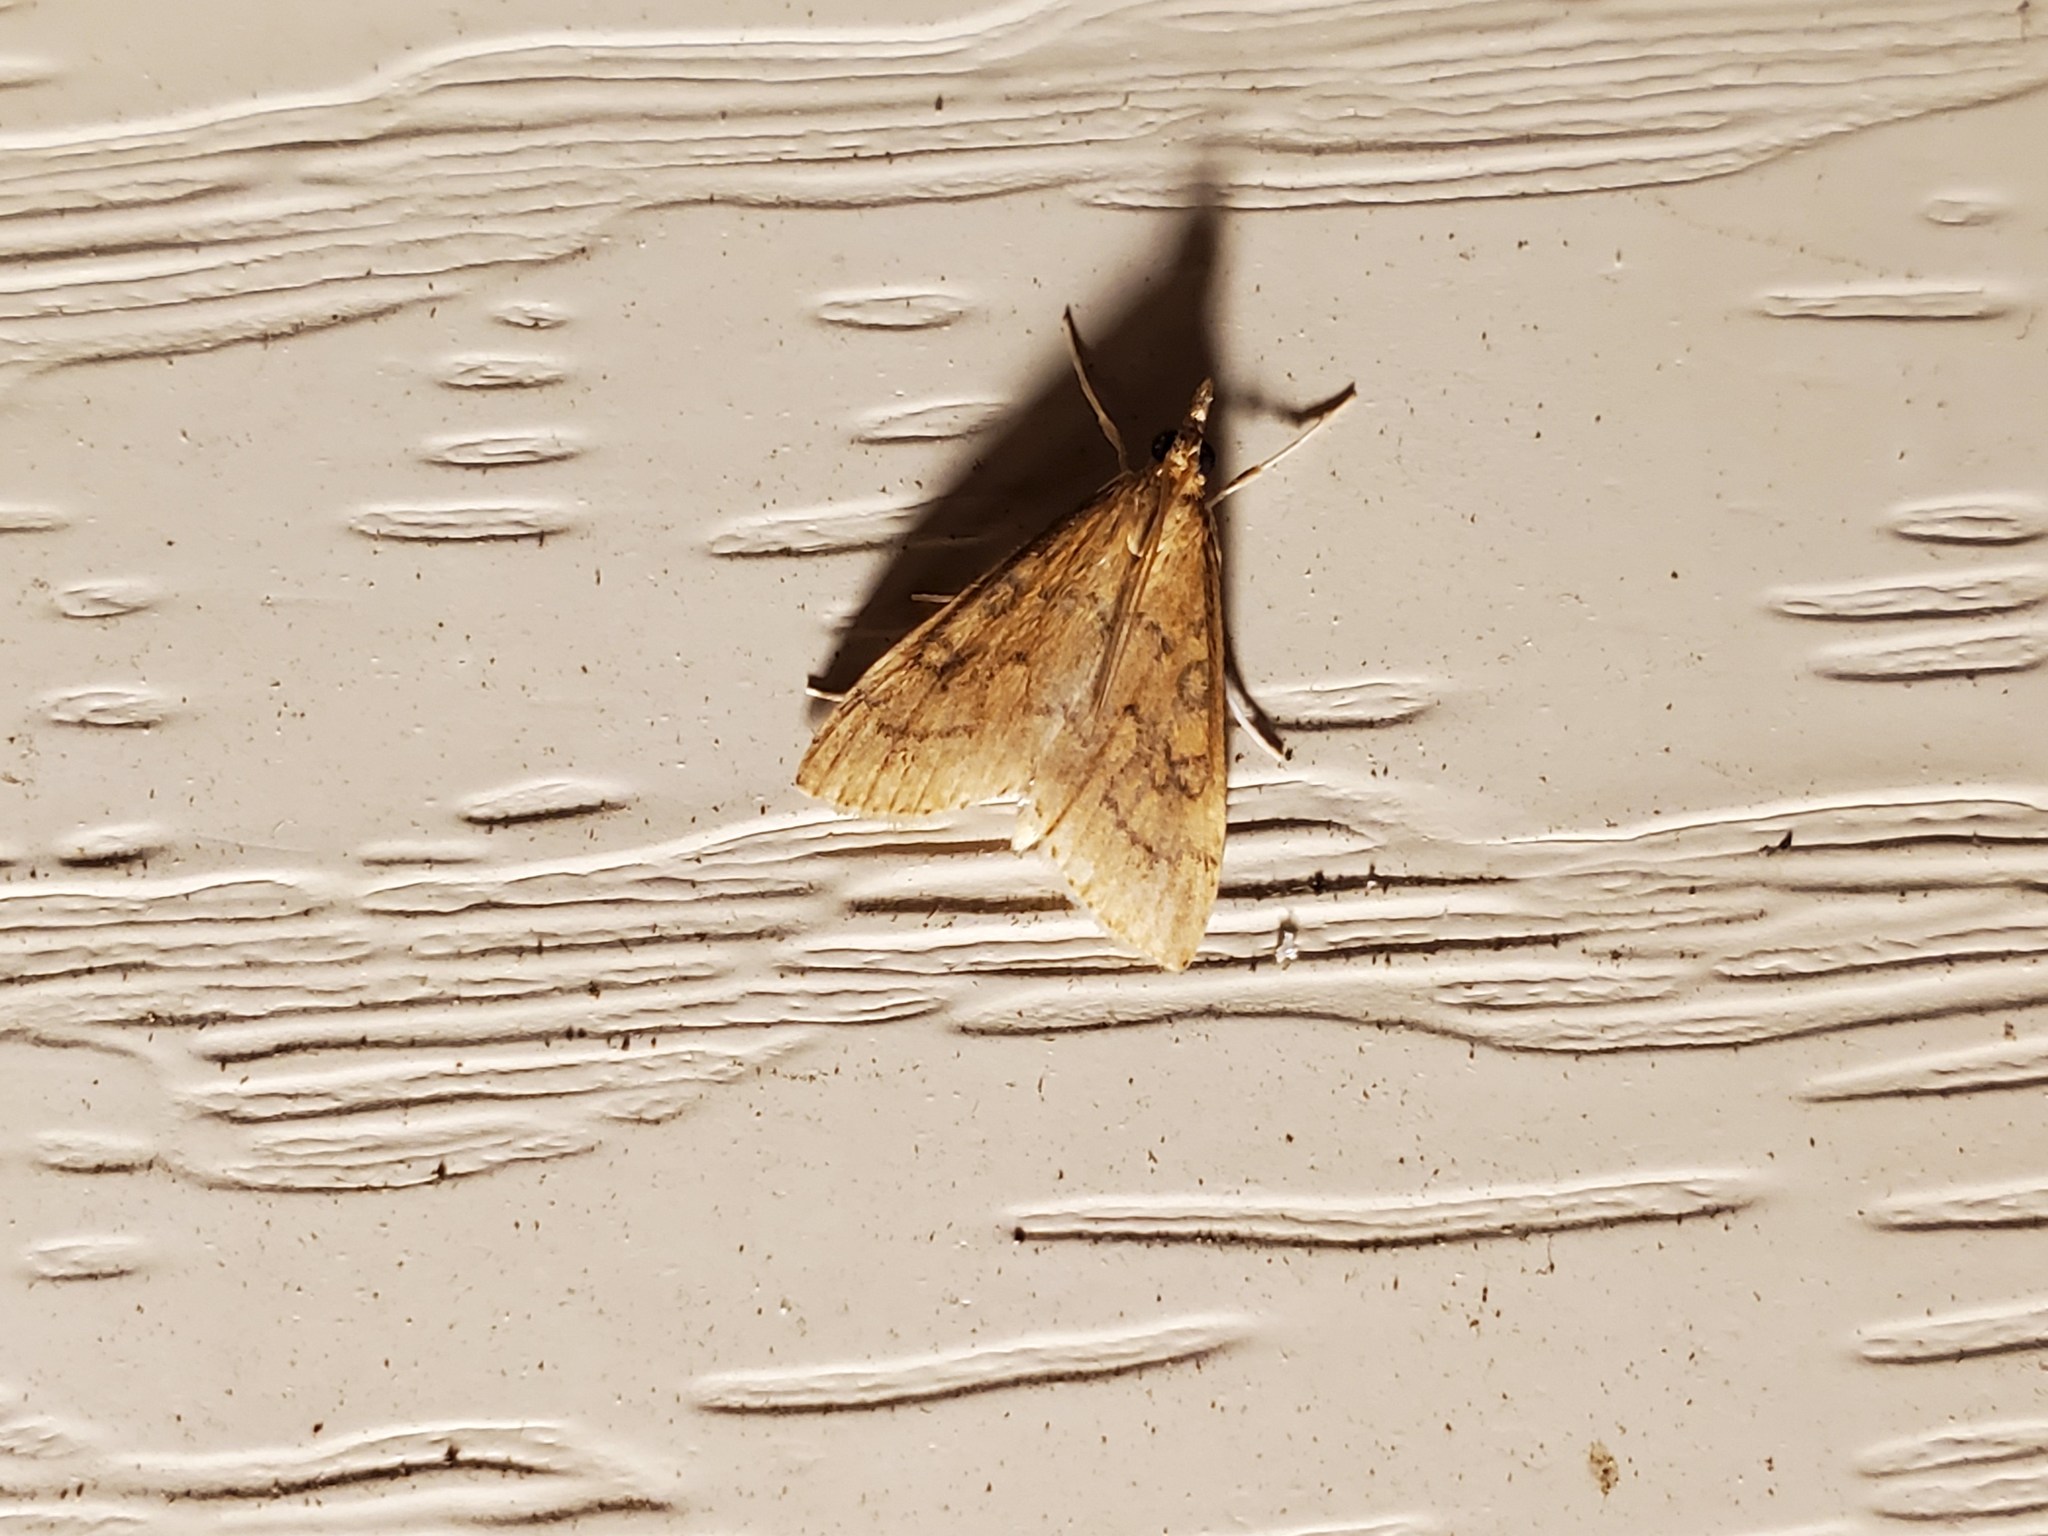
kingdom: Animalia
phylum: Arthropoda
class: Insecta
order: Lepidoptera
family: Crambidae
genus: Udea
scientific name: Udea rubigalis
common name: Celery leaftier moth
